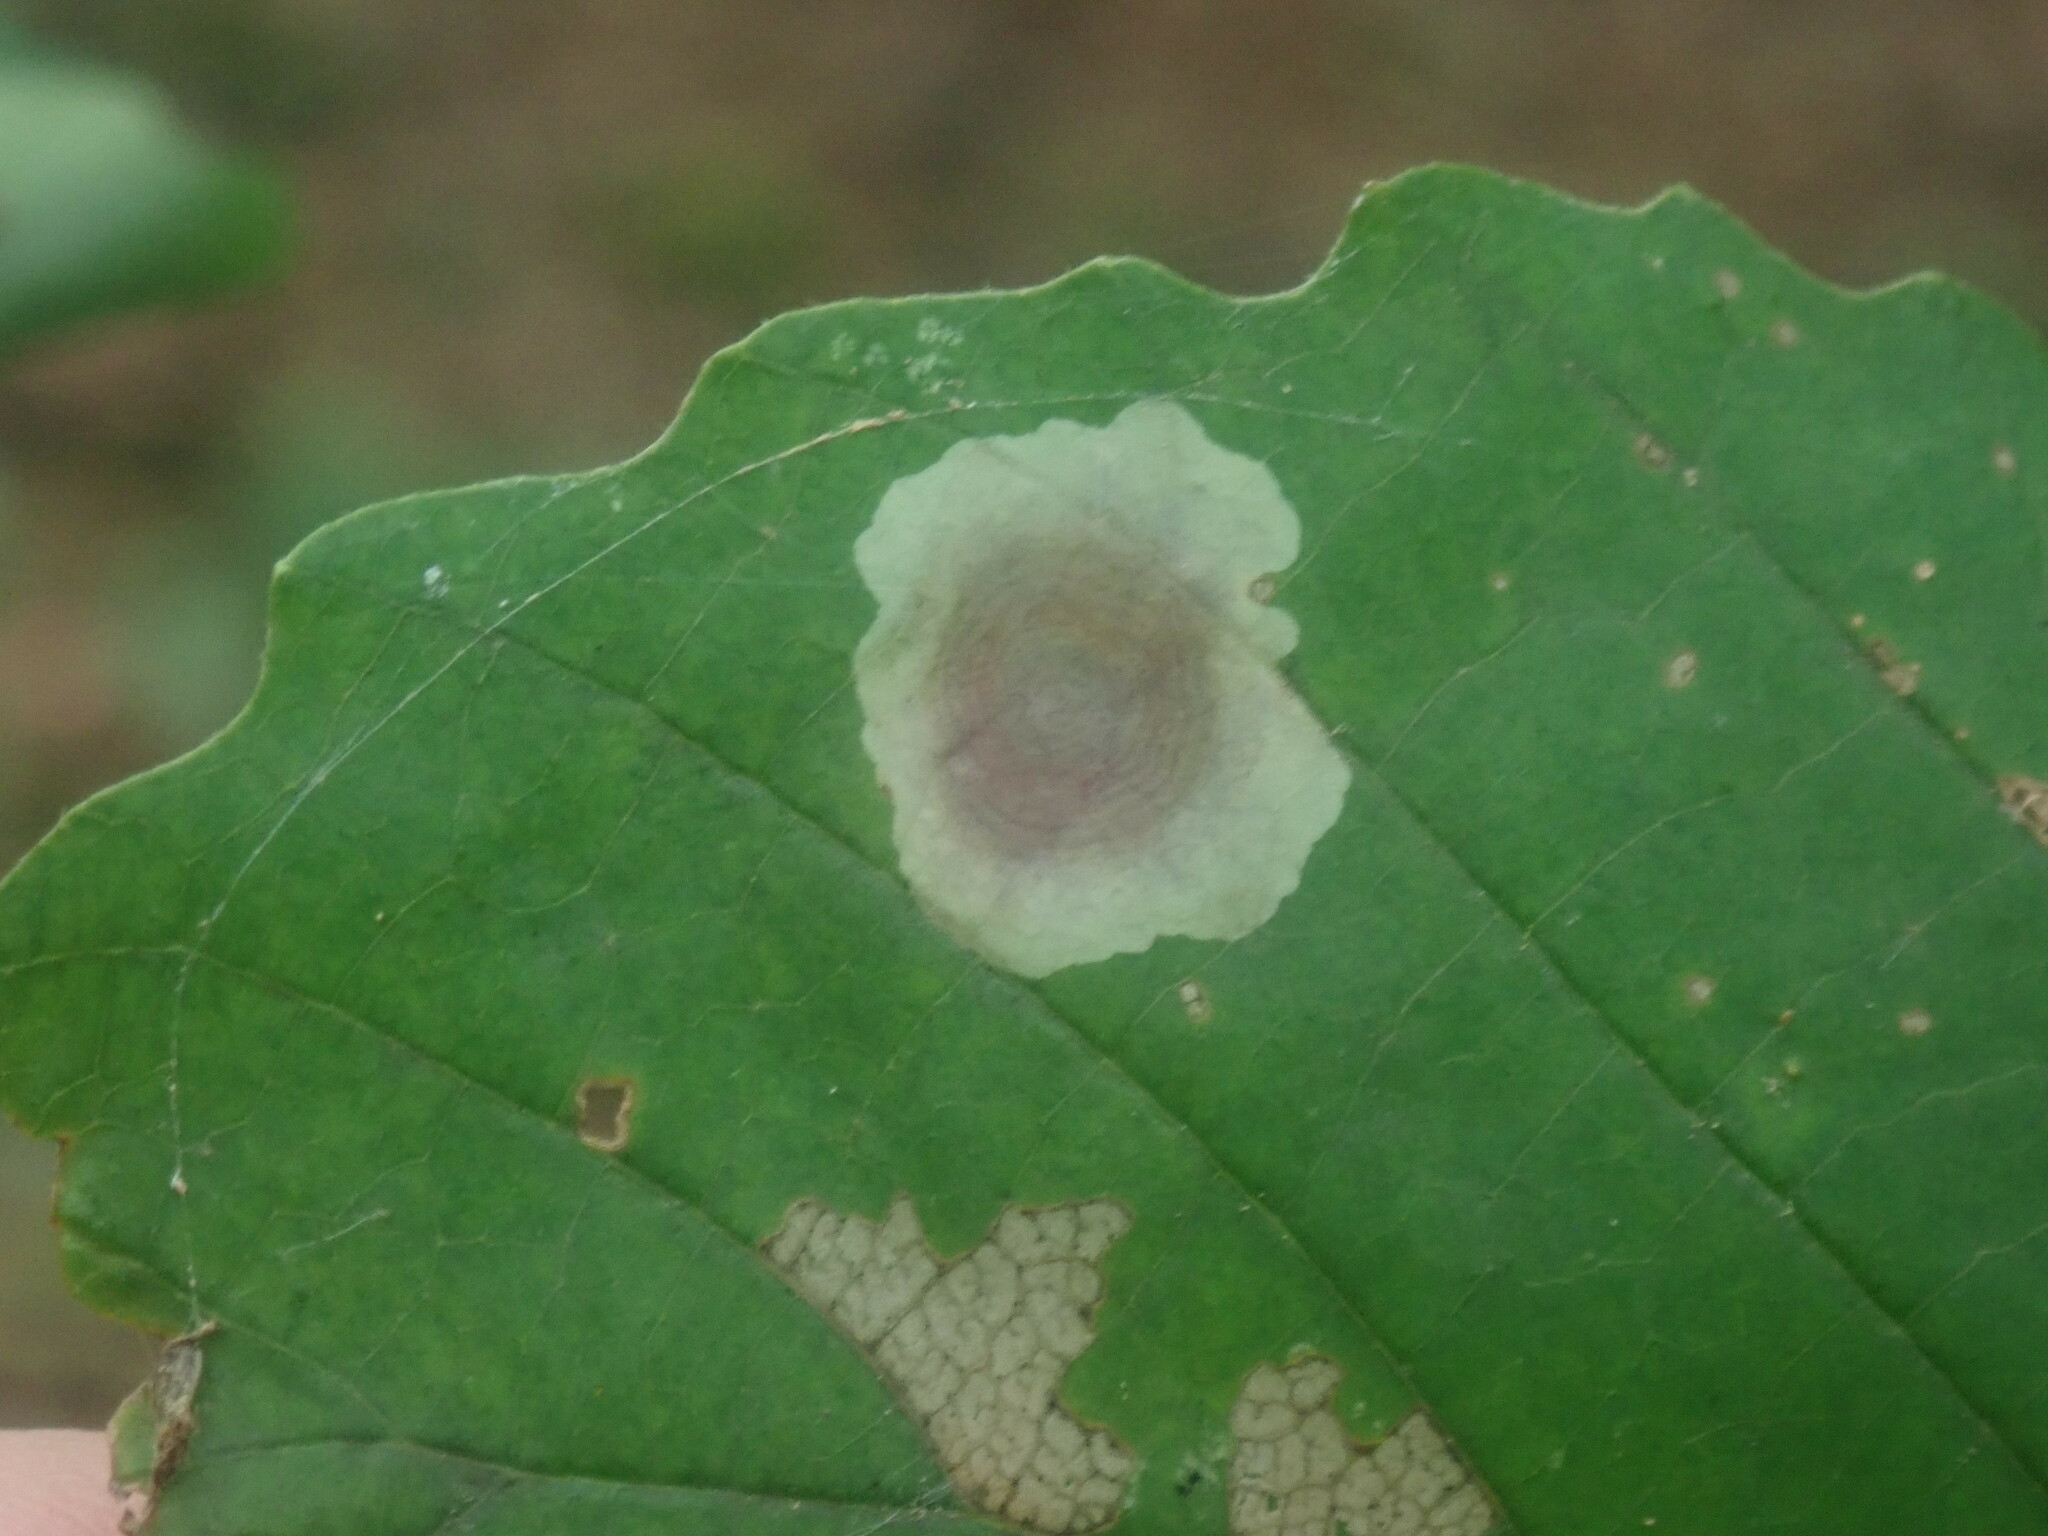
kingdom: Animalia
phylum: Arthropoda
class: Insecta
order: Lepidoptera
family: Gracillariidae
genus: Cameraria
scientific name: Cameraria hamameliella
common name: Witchhazel leafminer
